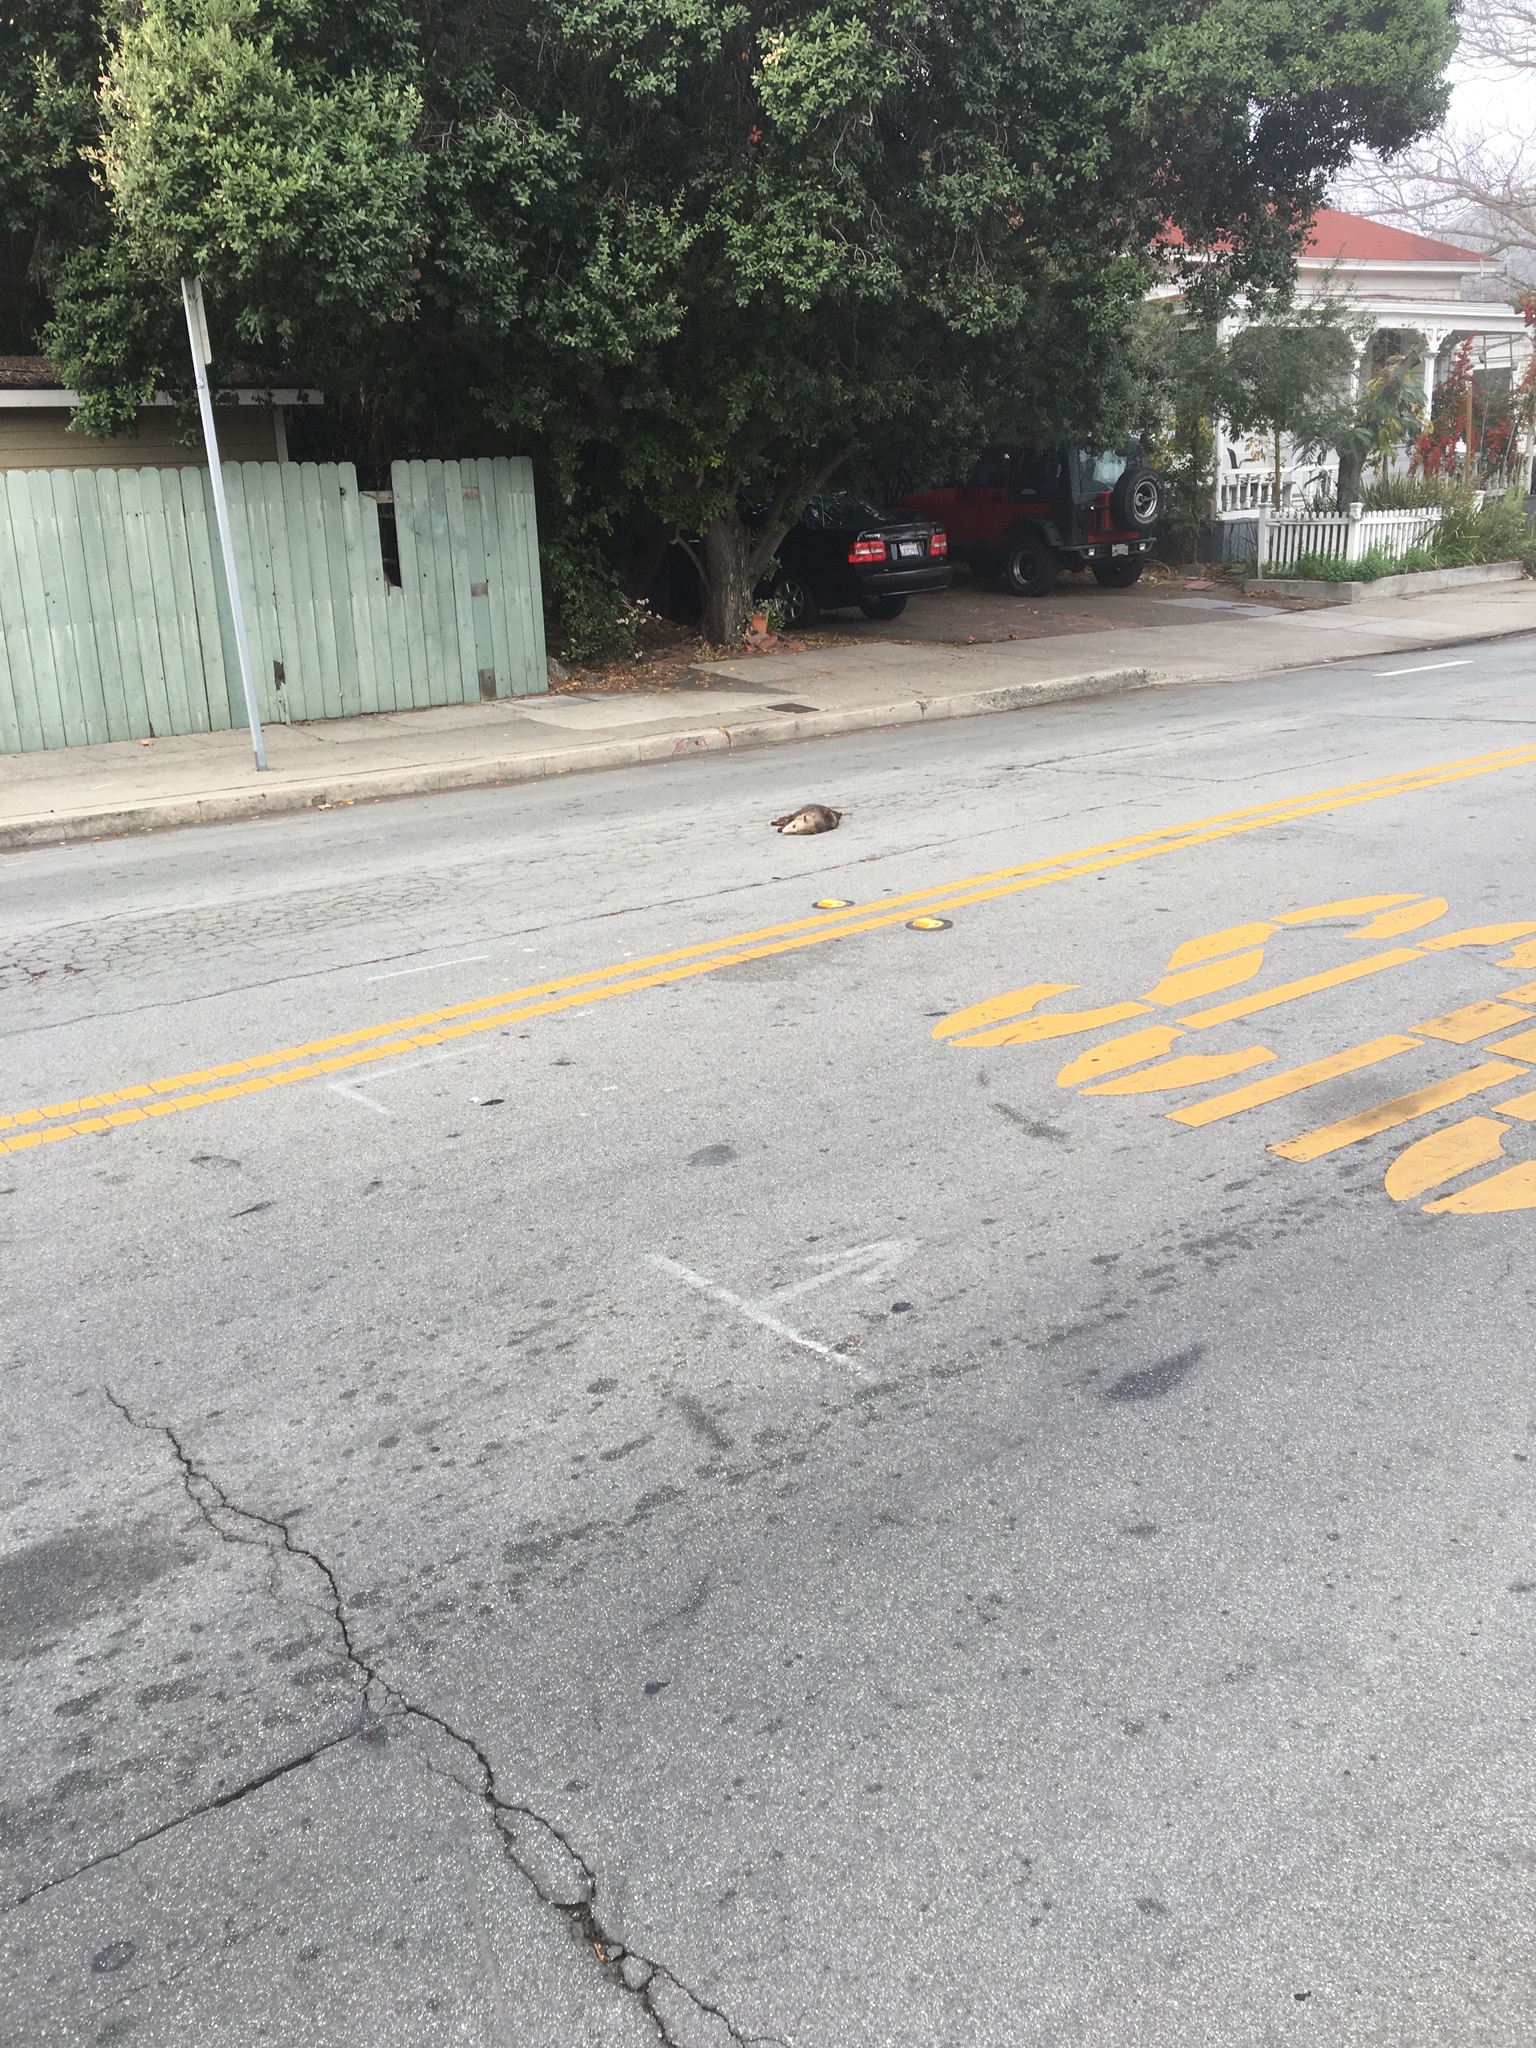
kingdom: Animalia
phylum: Chordata
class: Mammalia
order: Didelphimorphia
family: Didelphidae
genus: Didelphis
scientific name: Didelphis virginiana
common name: Virginia opossum
